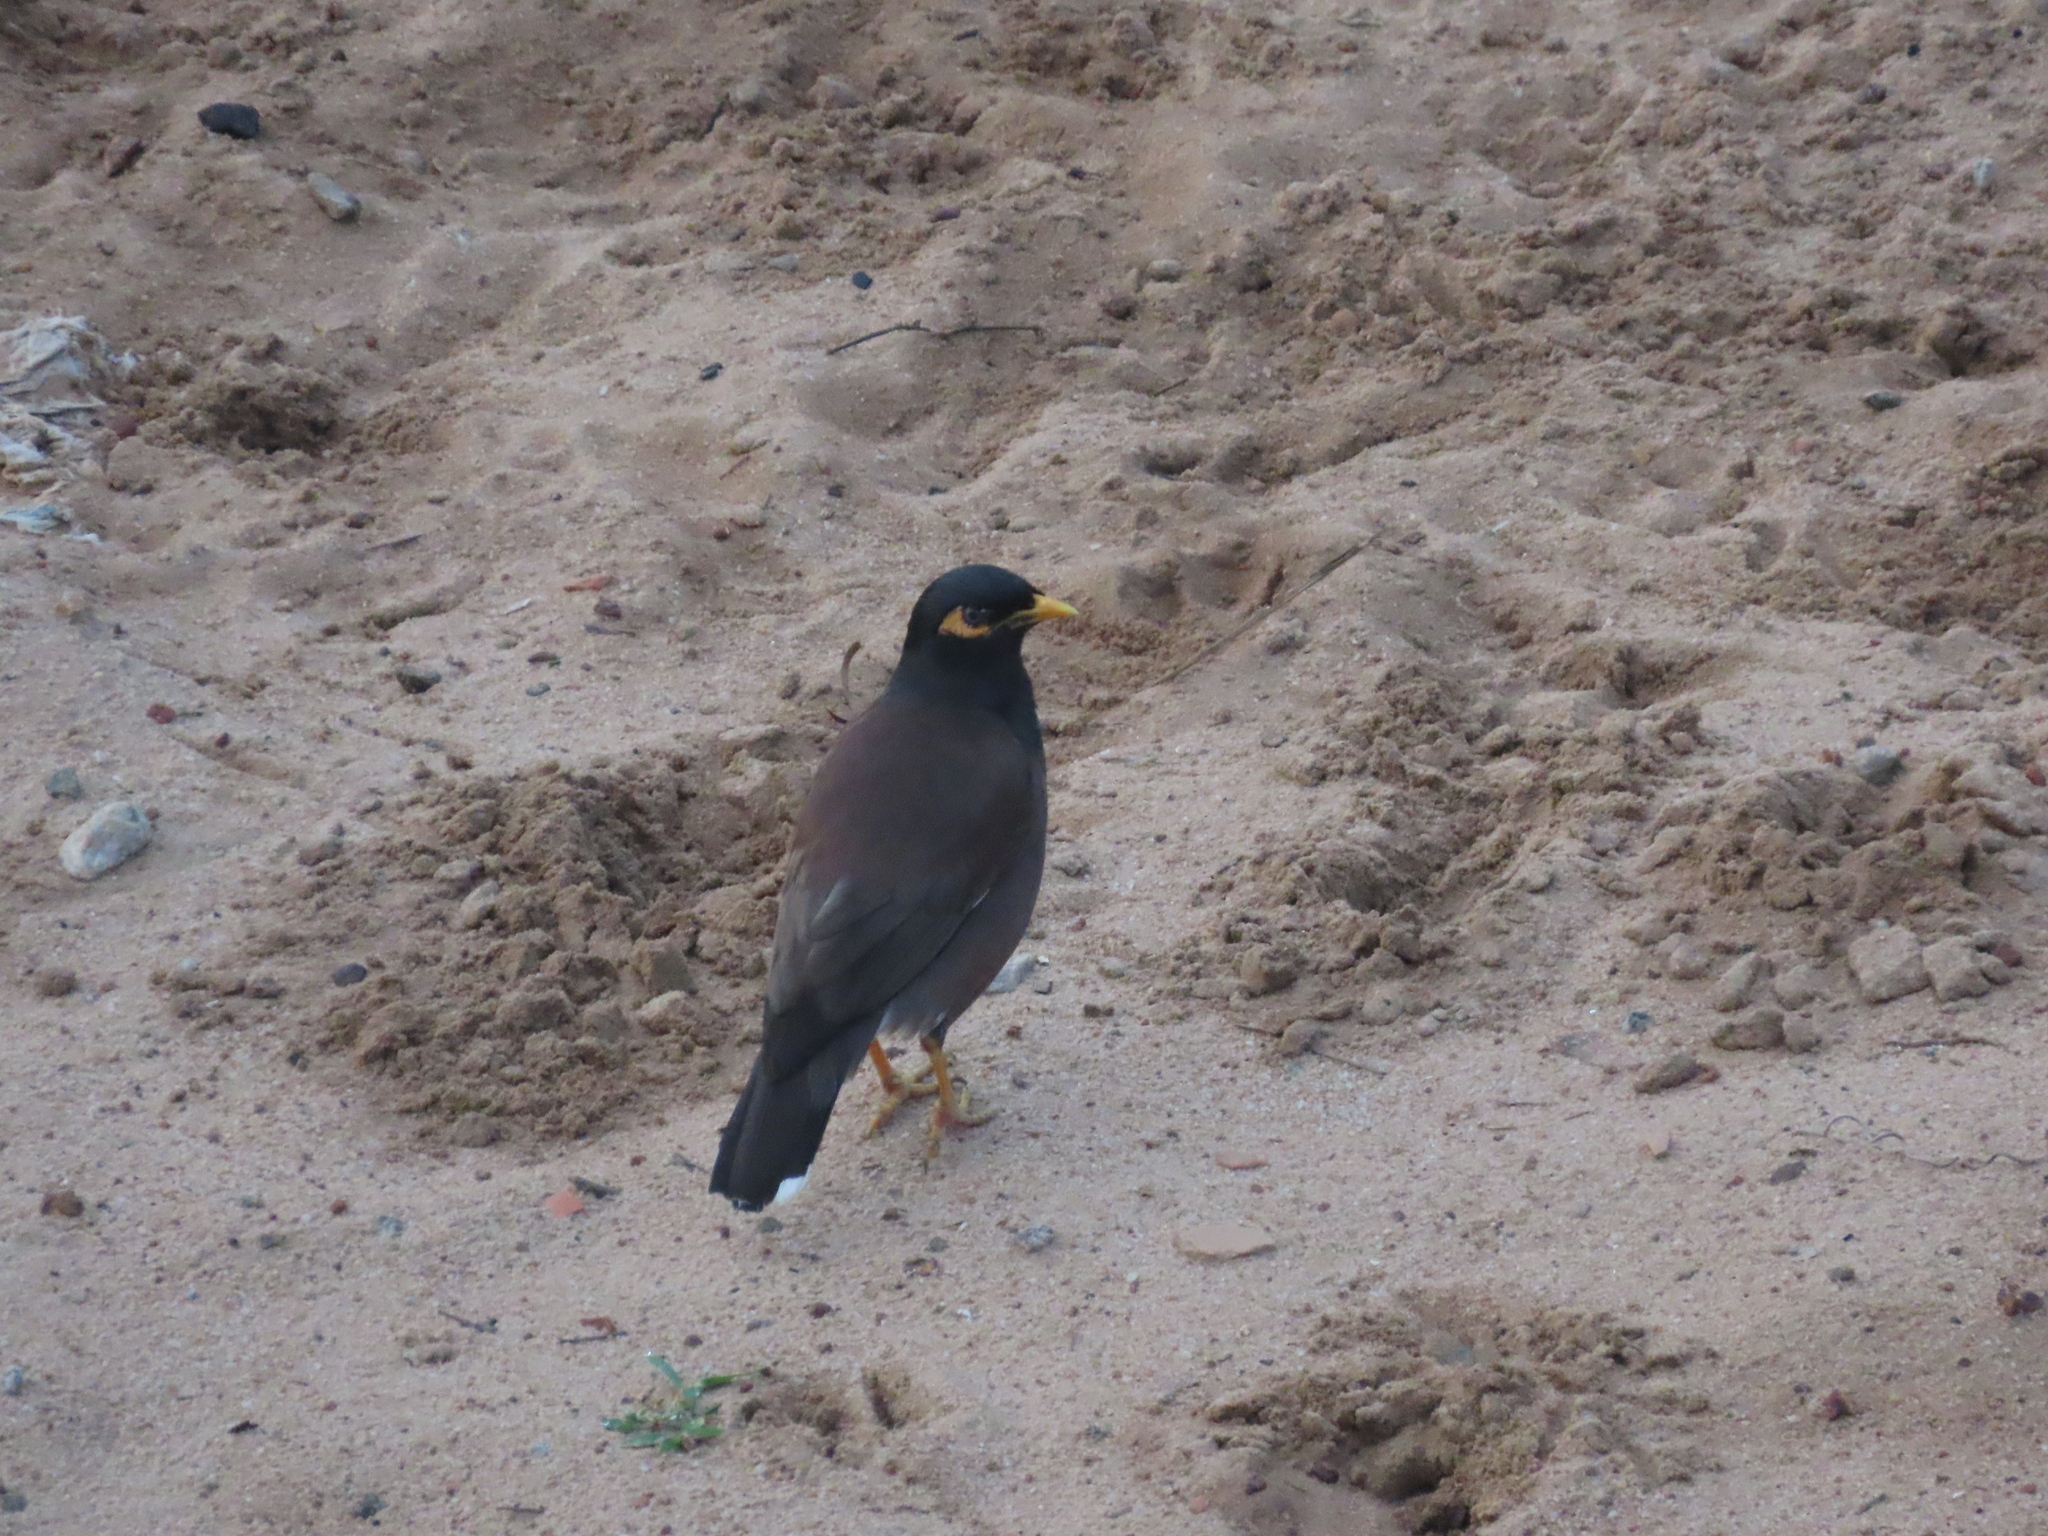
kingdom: Animalia
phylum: Chordata
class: Aves
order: Passeriformes
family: Sturnidae
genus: Acridotheres
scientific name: Acridotheres tristis
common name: Common myna
